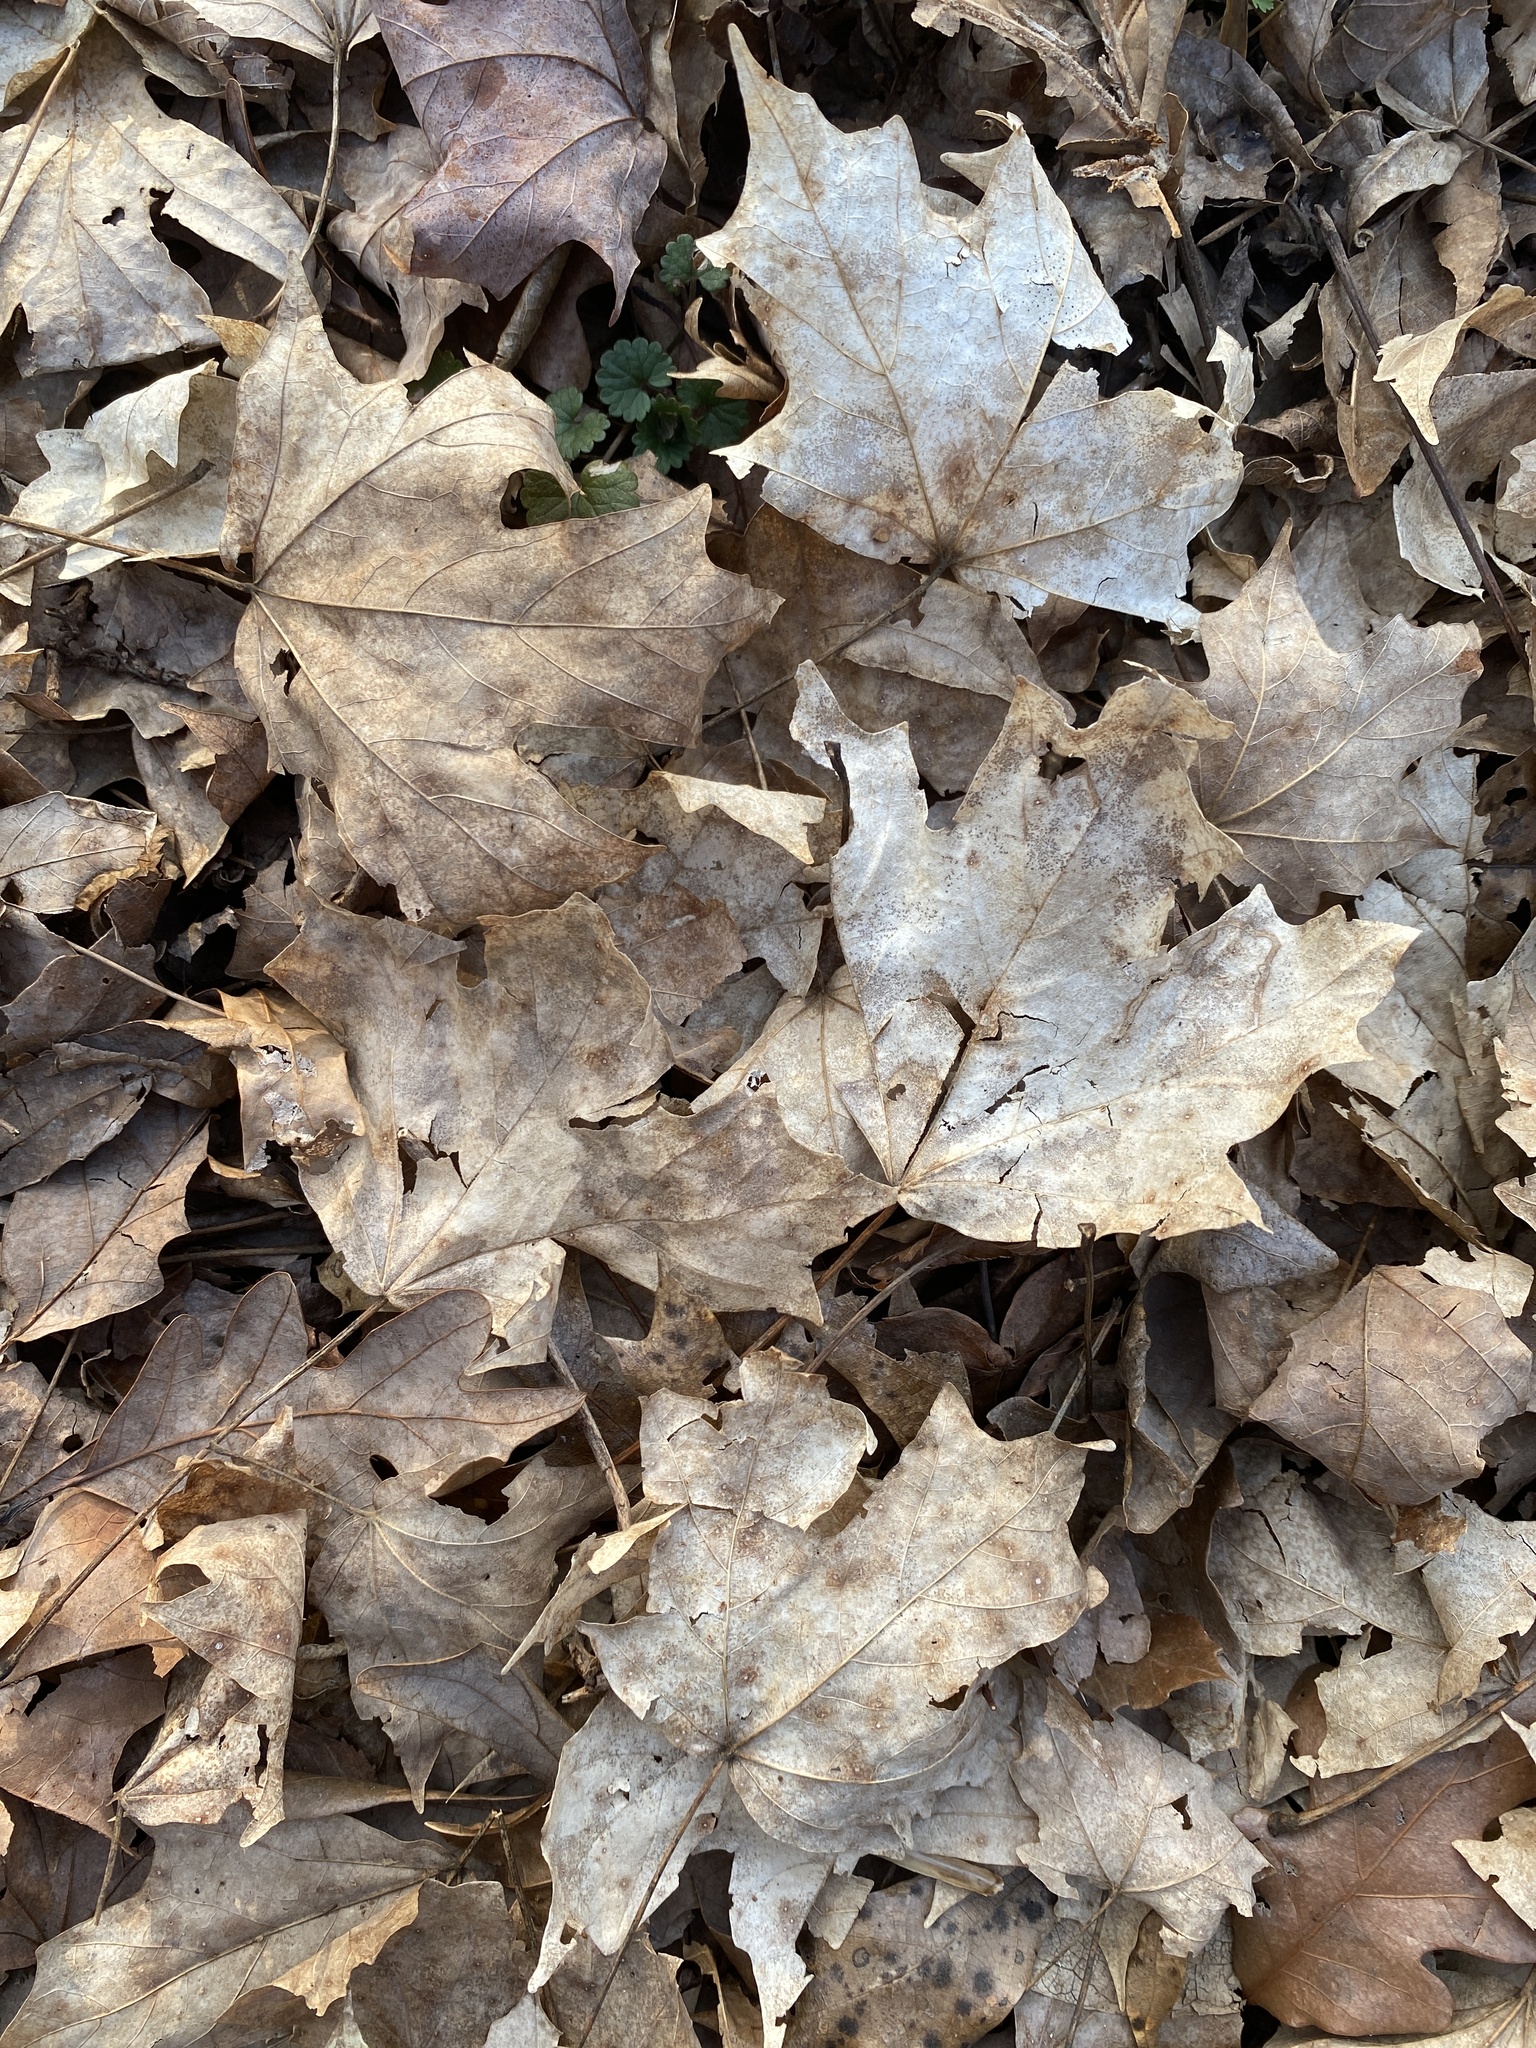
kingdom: Plantae
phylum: Tracheophyta
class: Magnoliopsida
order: Sapindales
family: Sapindaceae
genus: Acer
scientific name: Acer floridanum
